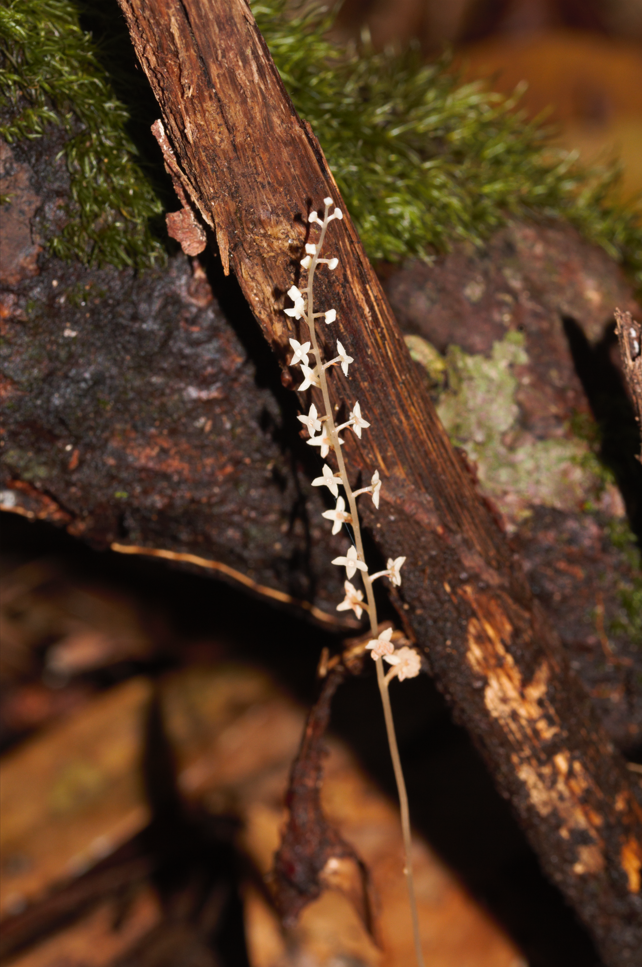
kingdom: Plantae
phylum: Tracheophyta
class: Liliopsida
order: Pandanales
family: Triuridaceae
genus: Soridium
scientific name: Soridium spruceanum
